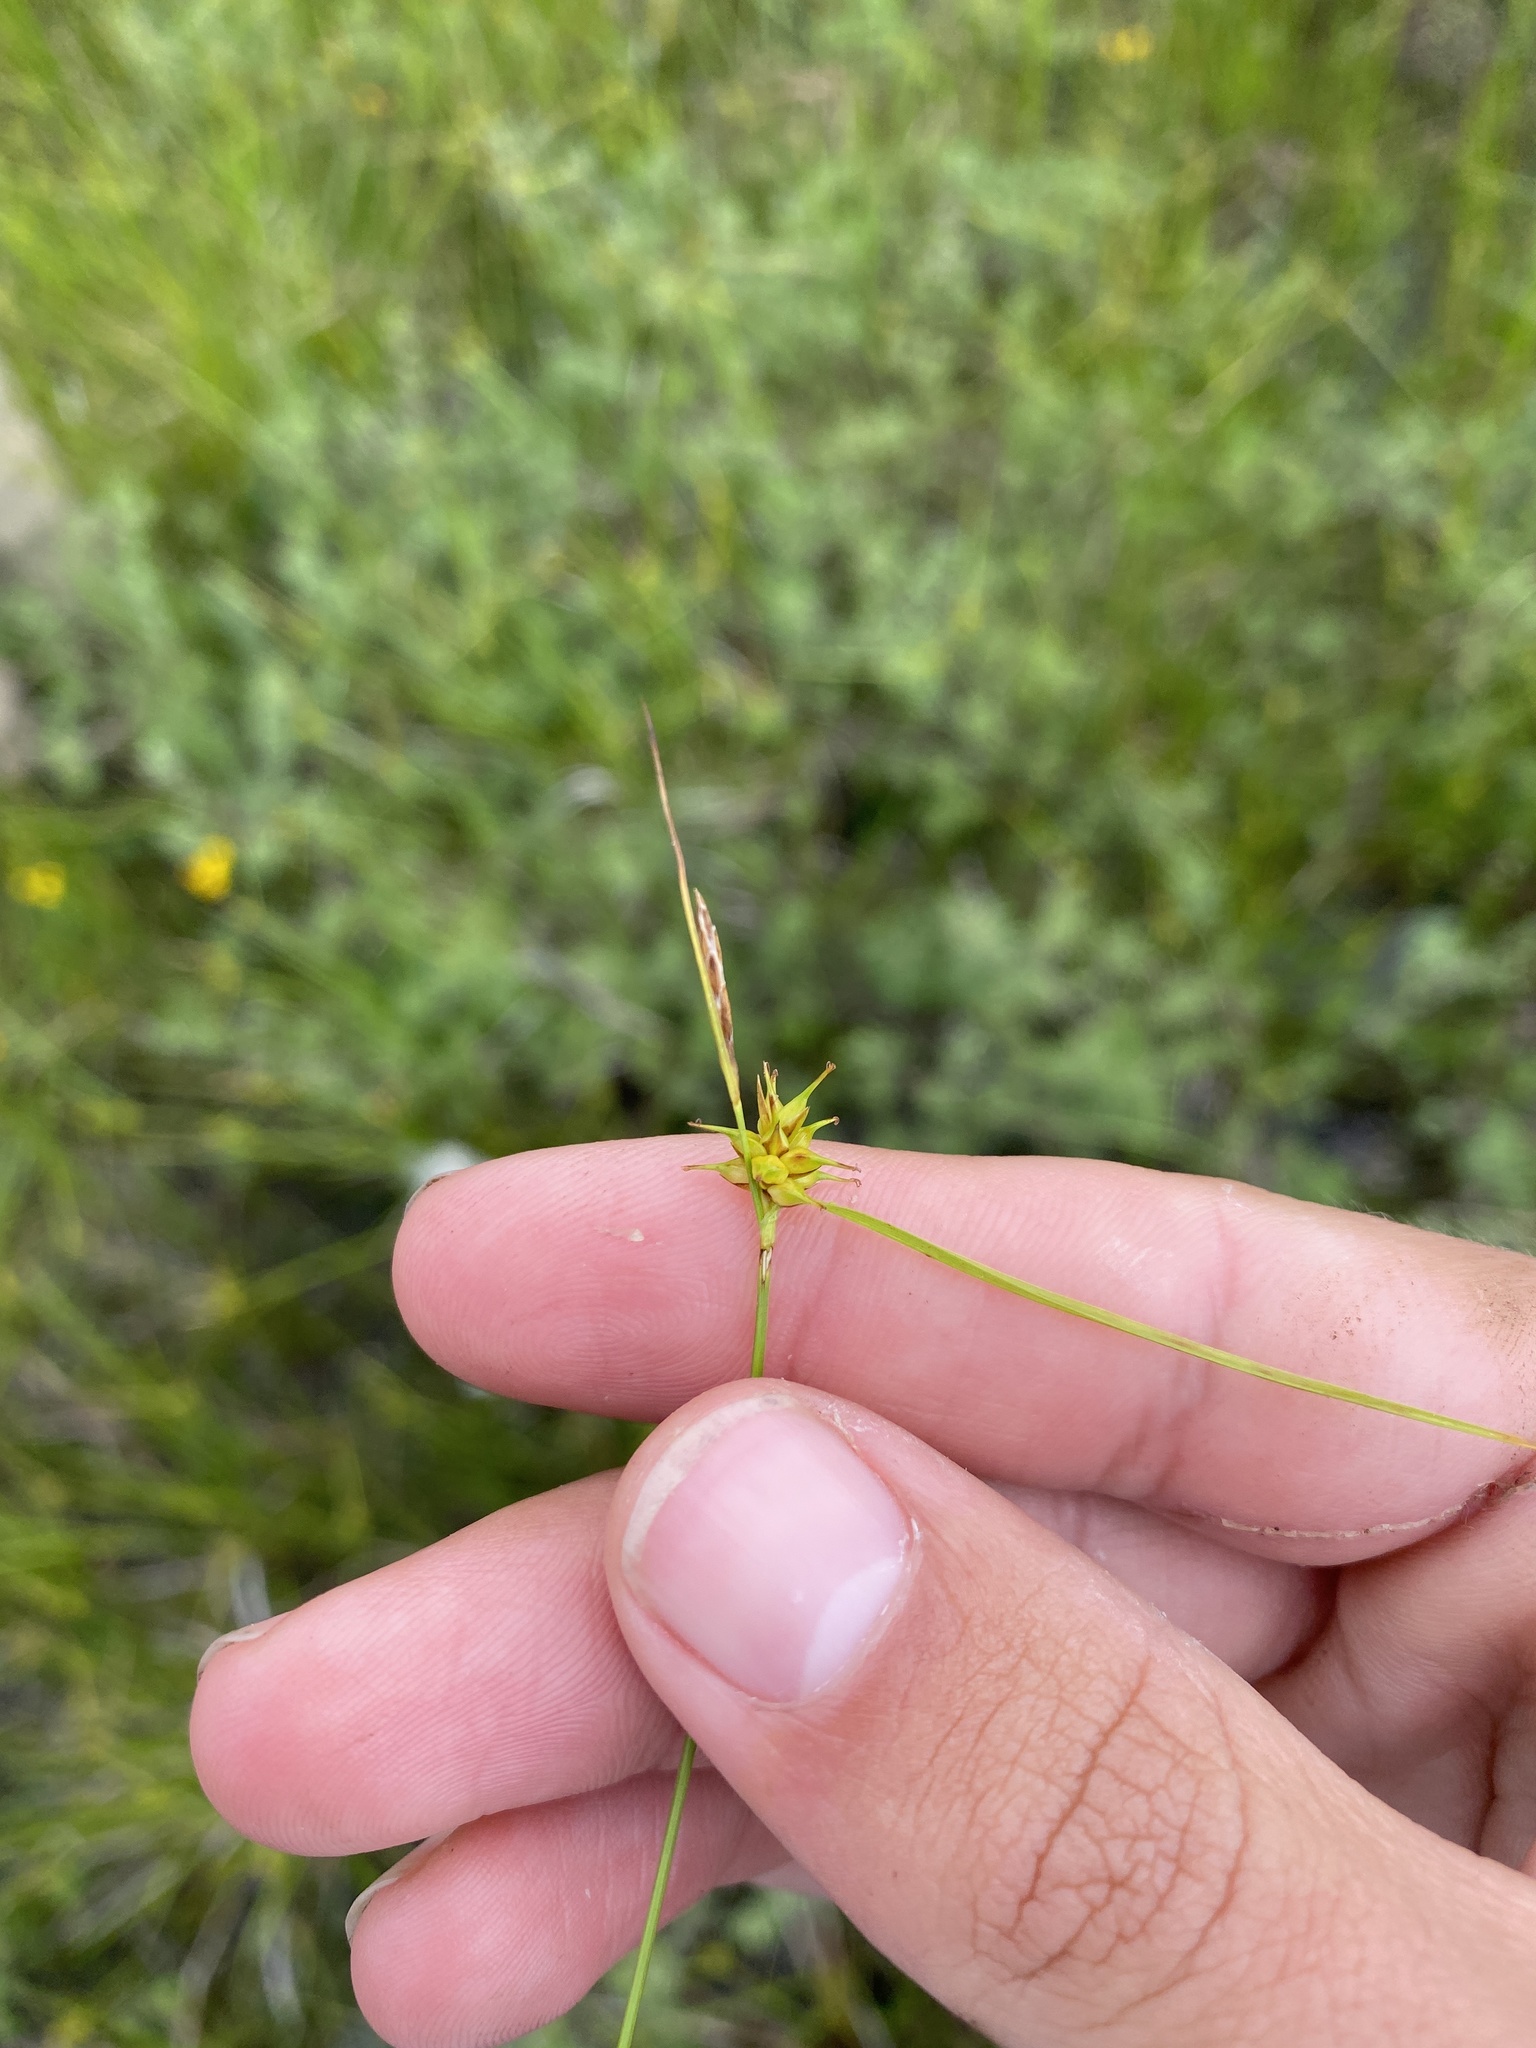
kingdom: Plantae
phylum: Tracheophyta
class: Liliopsida
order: Poales
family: Cyperaceae
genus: Carex
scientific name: Carex flava
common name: Large yellow-sedge
